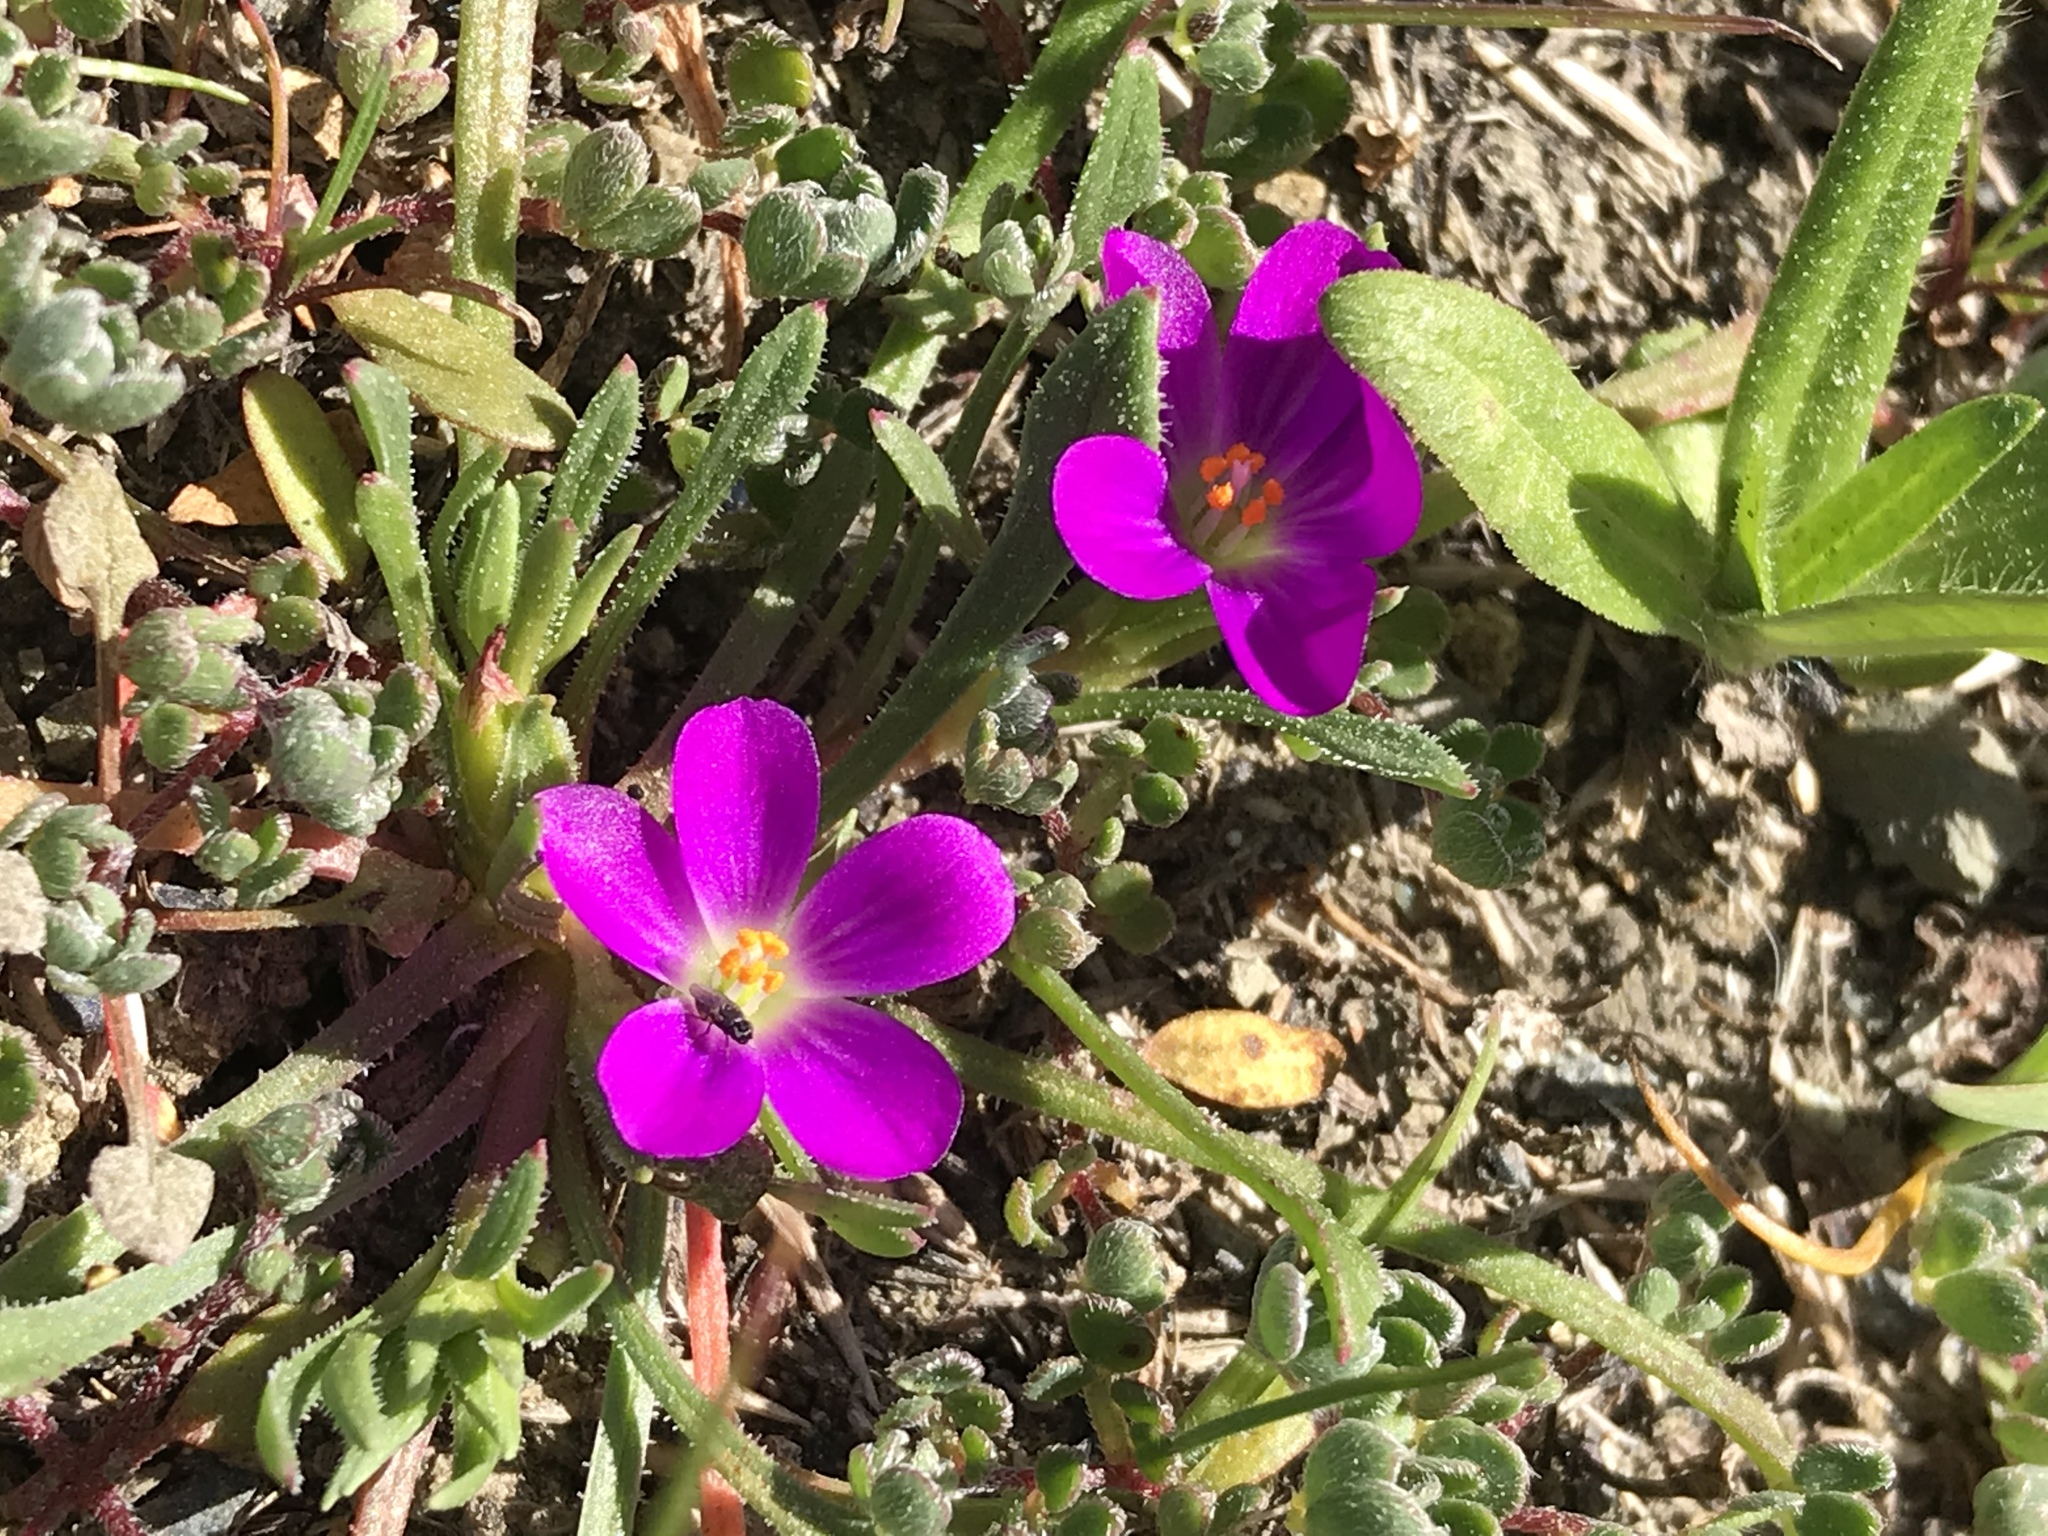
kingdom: Plantae
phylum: Tracheophyta
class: Magnoliopsida
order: Caryophyllales
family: Montiaceae
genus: Calandrinia
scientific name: Calandrinia menziesii
